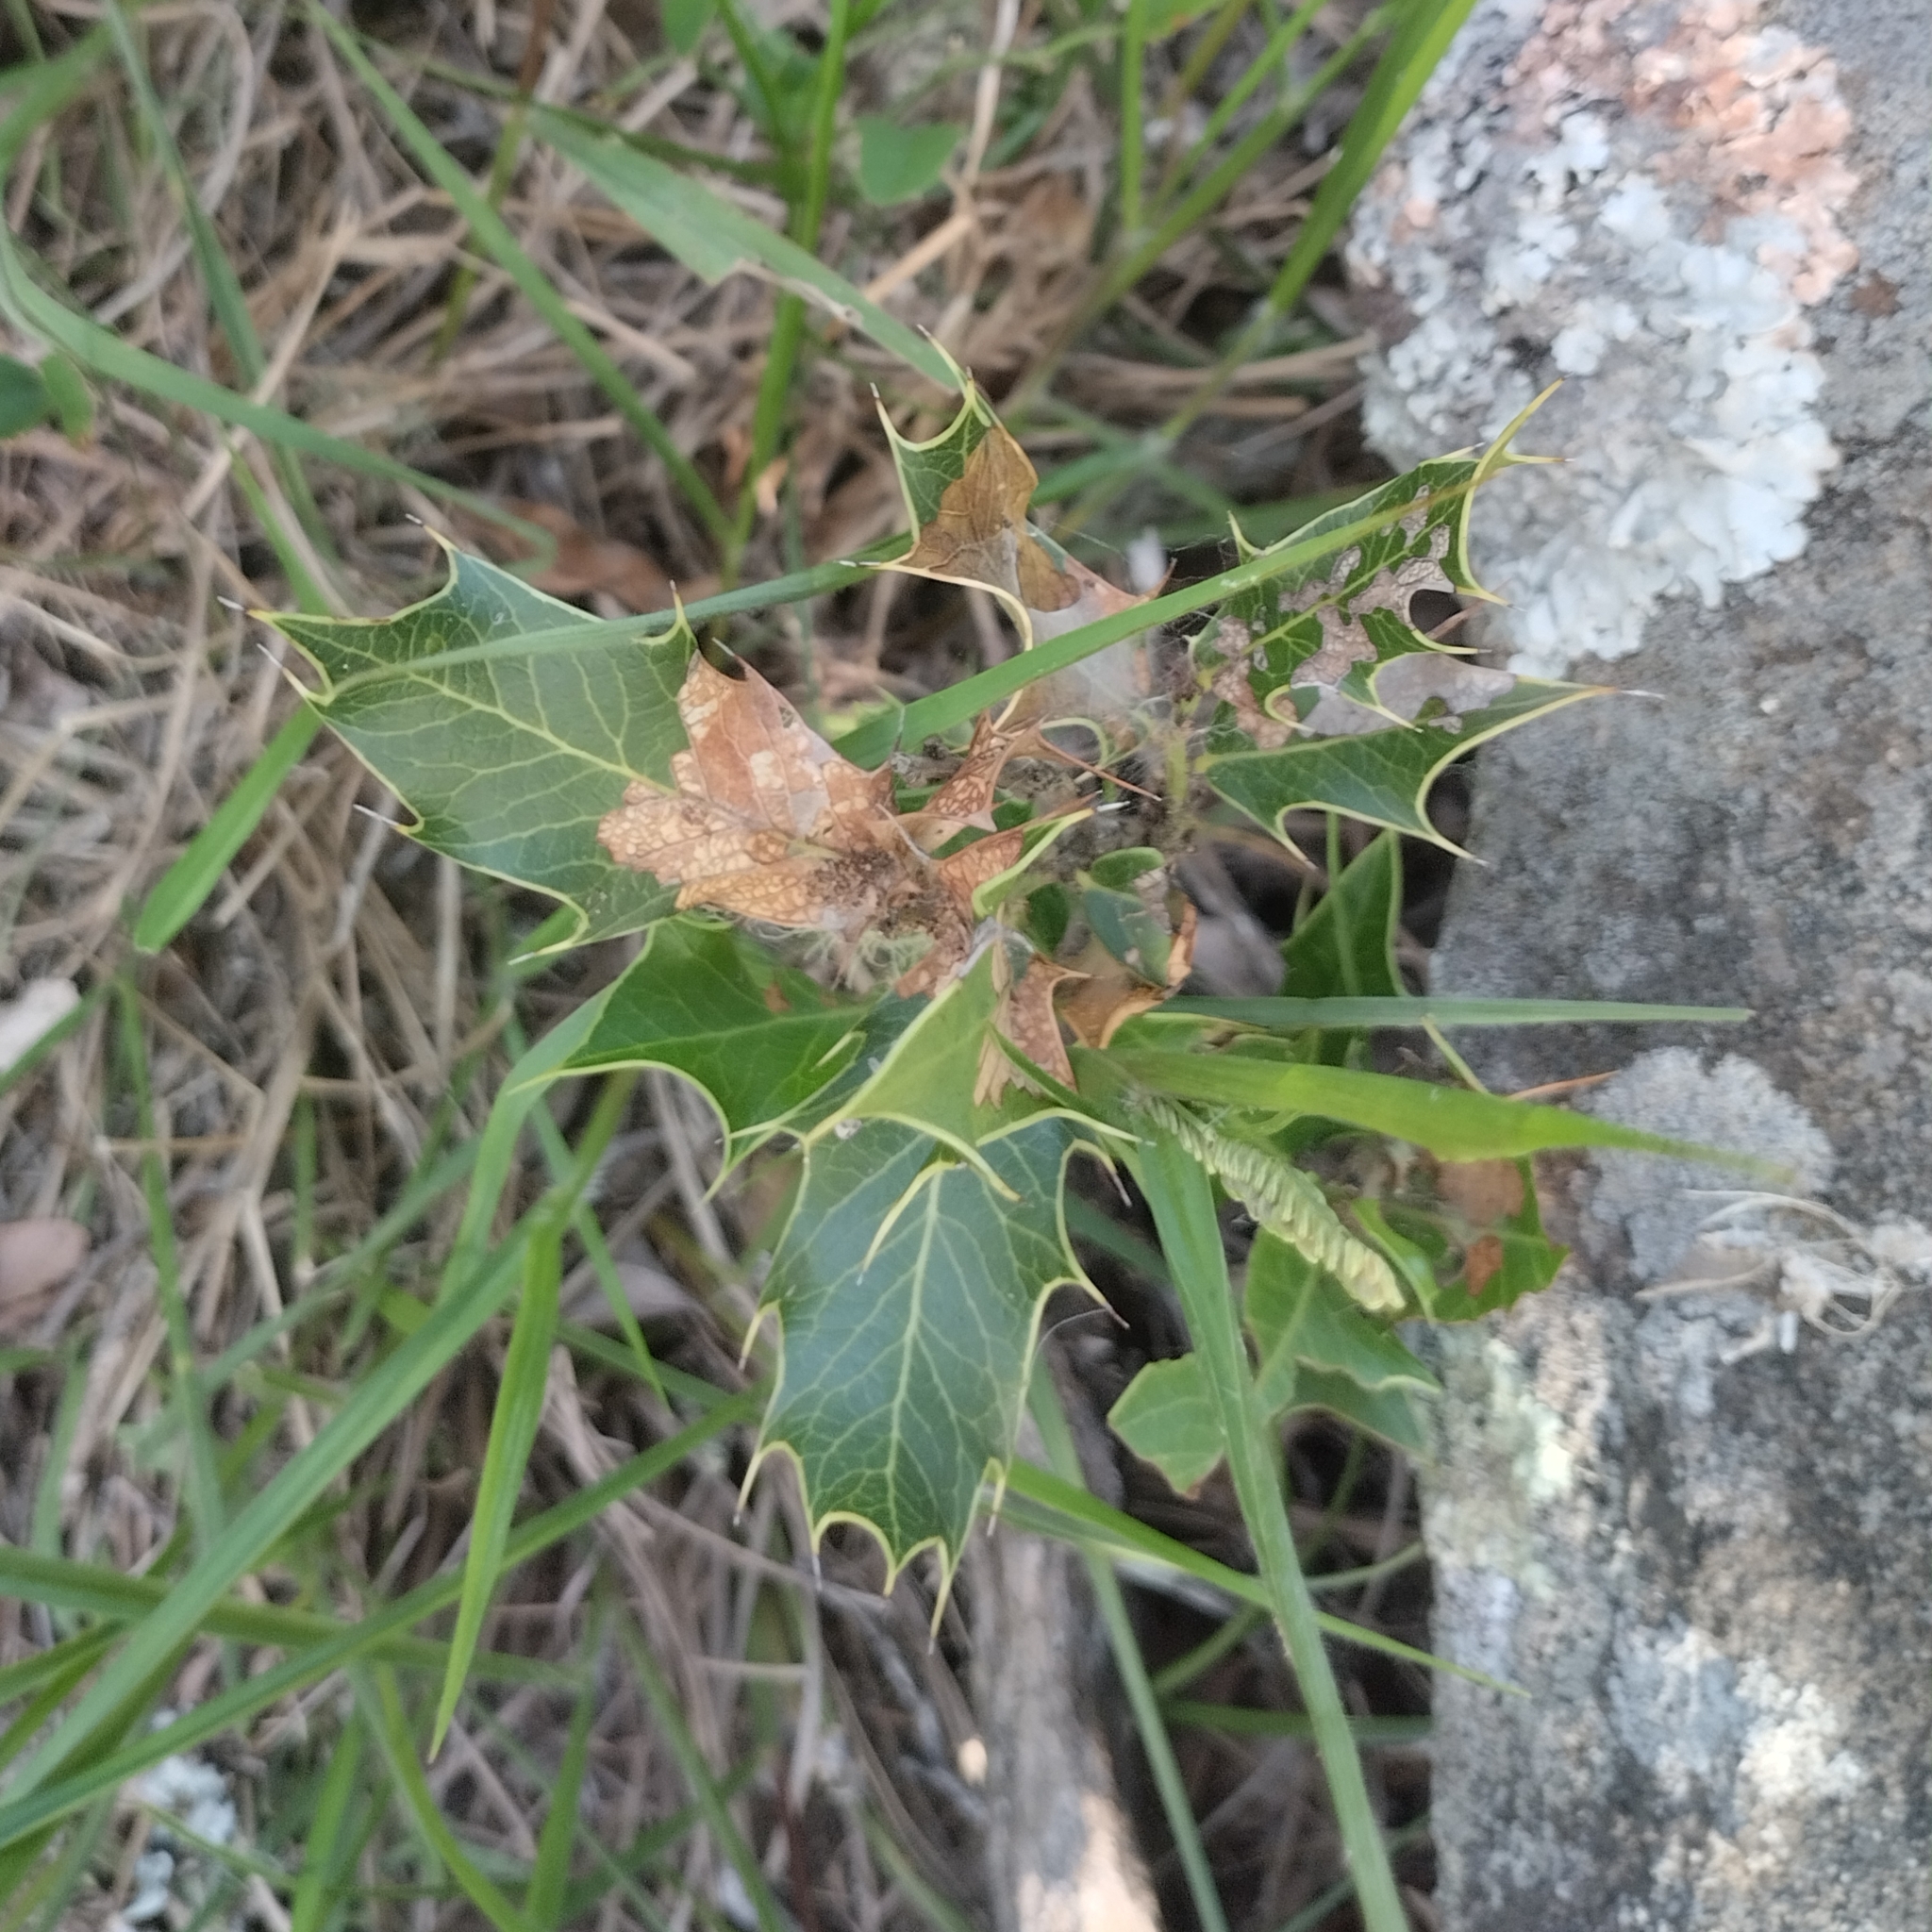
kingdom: Plantae
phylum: Tracheophyta
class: Magnoliopsida
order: Celastrales
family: Celastraceae
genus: Monteverdia
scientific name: Monteverdia
